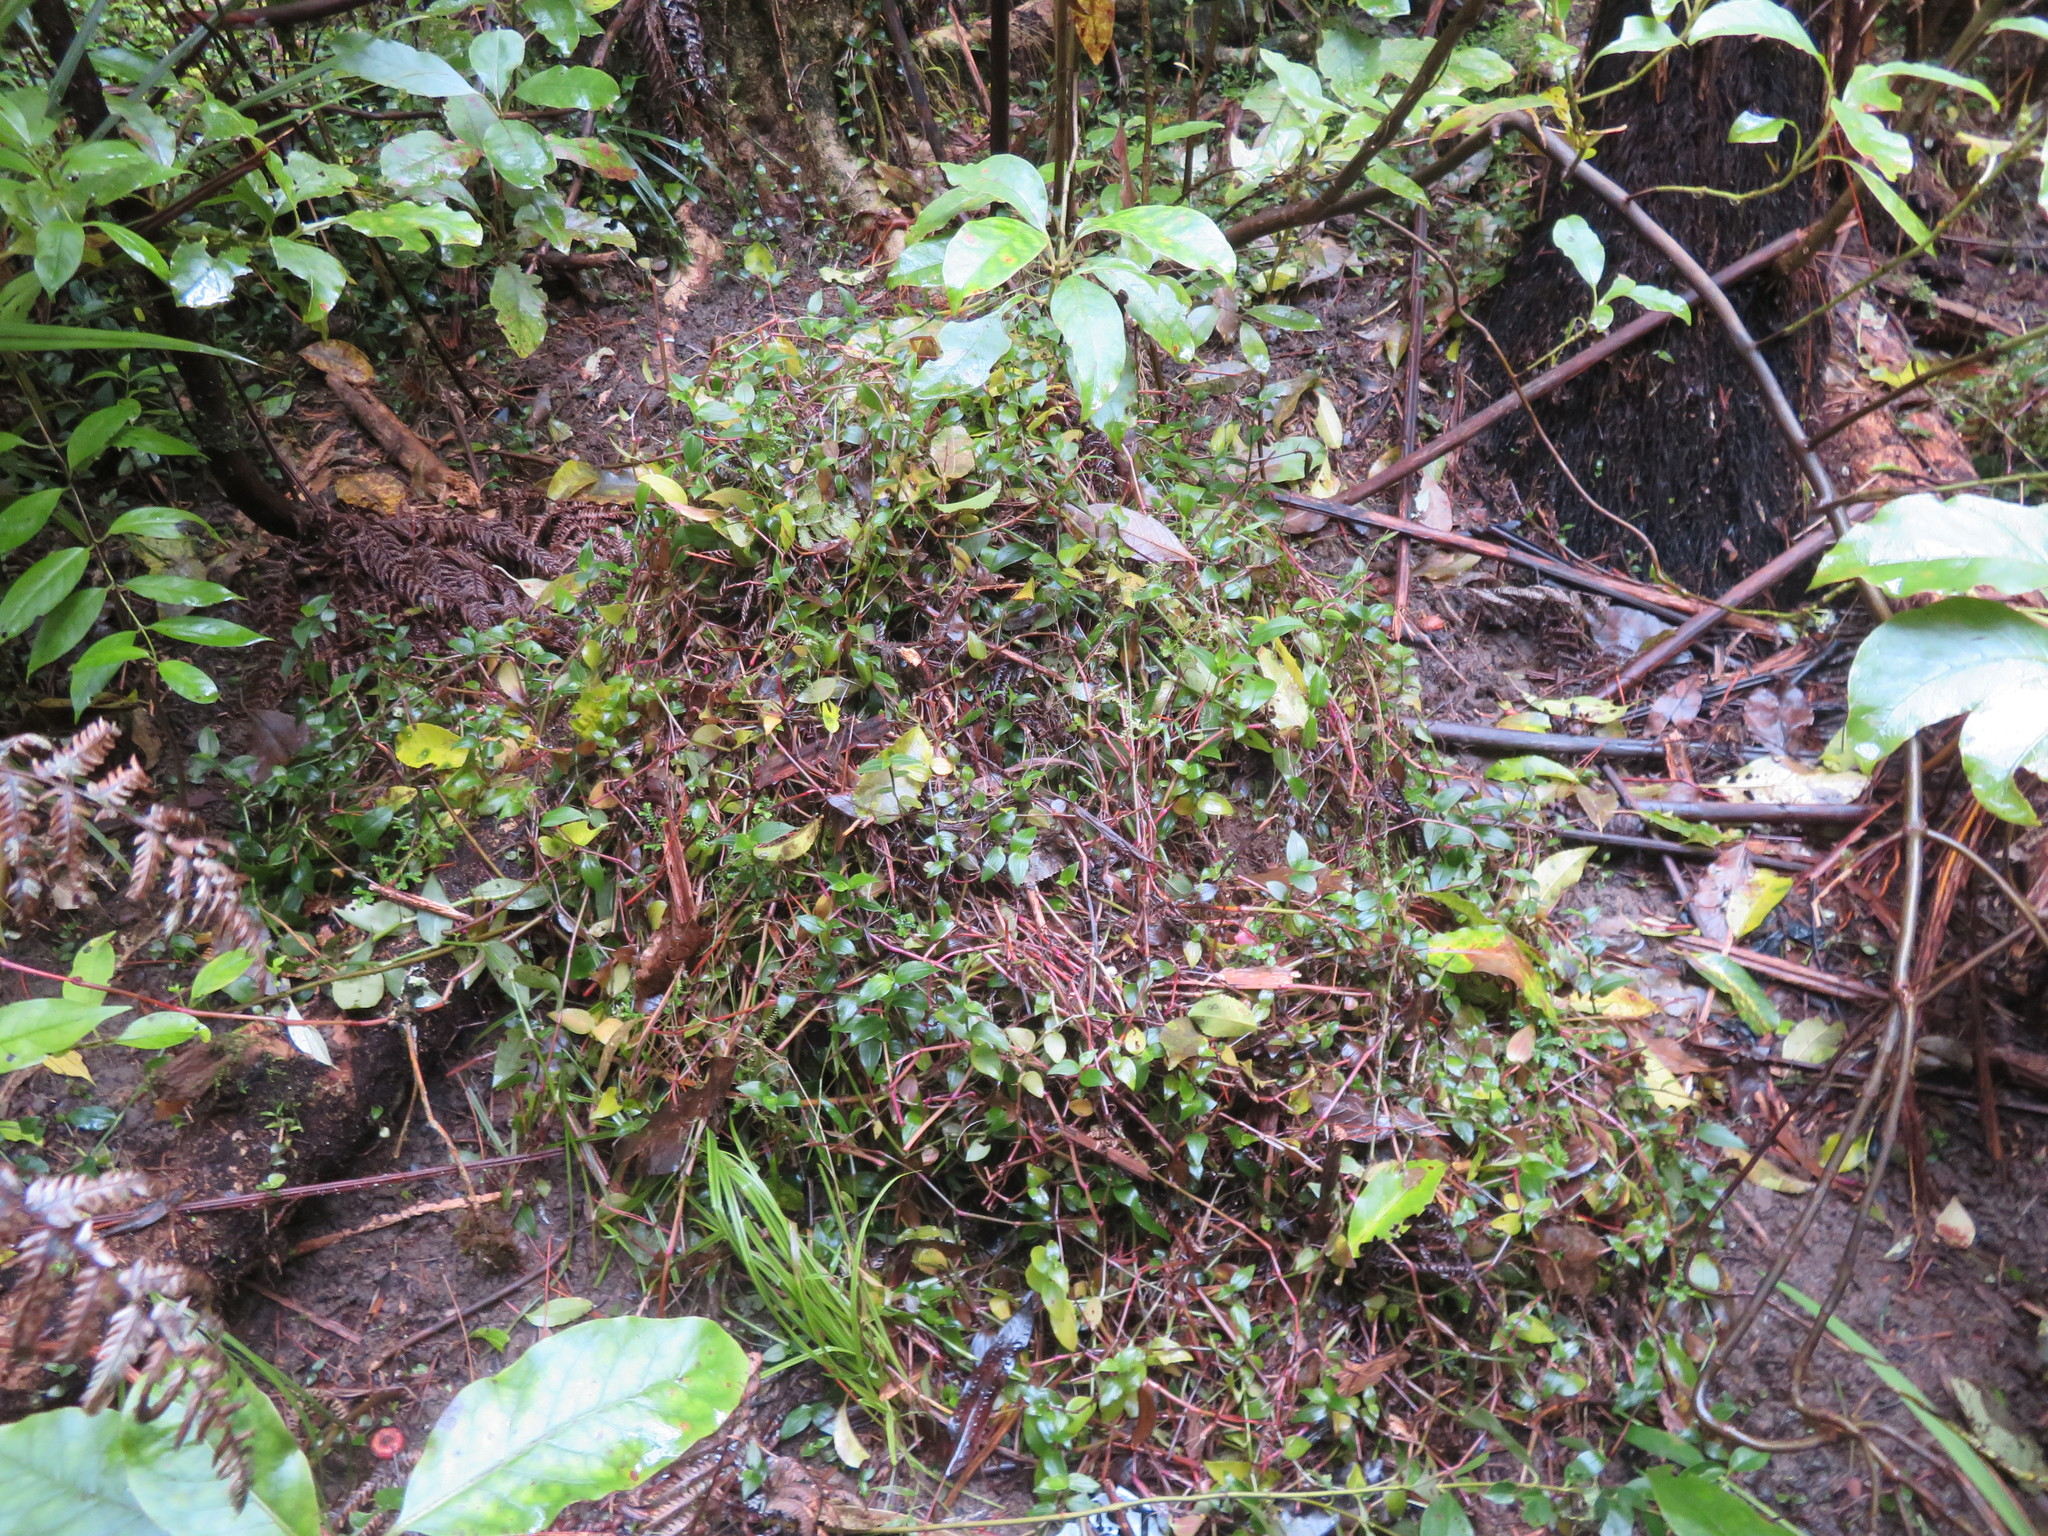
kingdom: Plantae
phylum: Tracheophyta
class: Liliopsida
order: Commelinales
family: Commelinaceae
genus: Tradescantia
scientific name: Tradescantia fluminensis
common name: Wandering-jew
